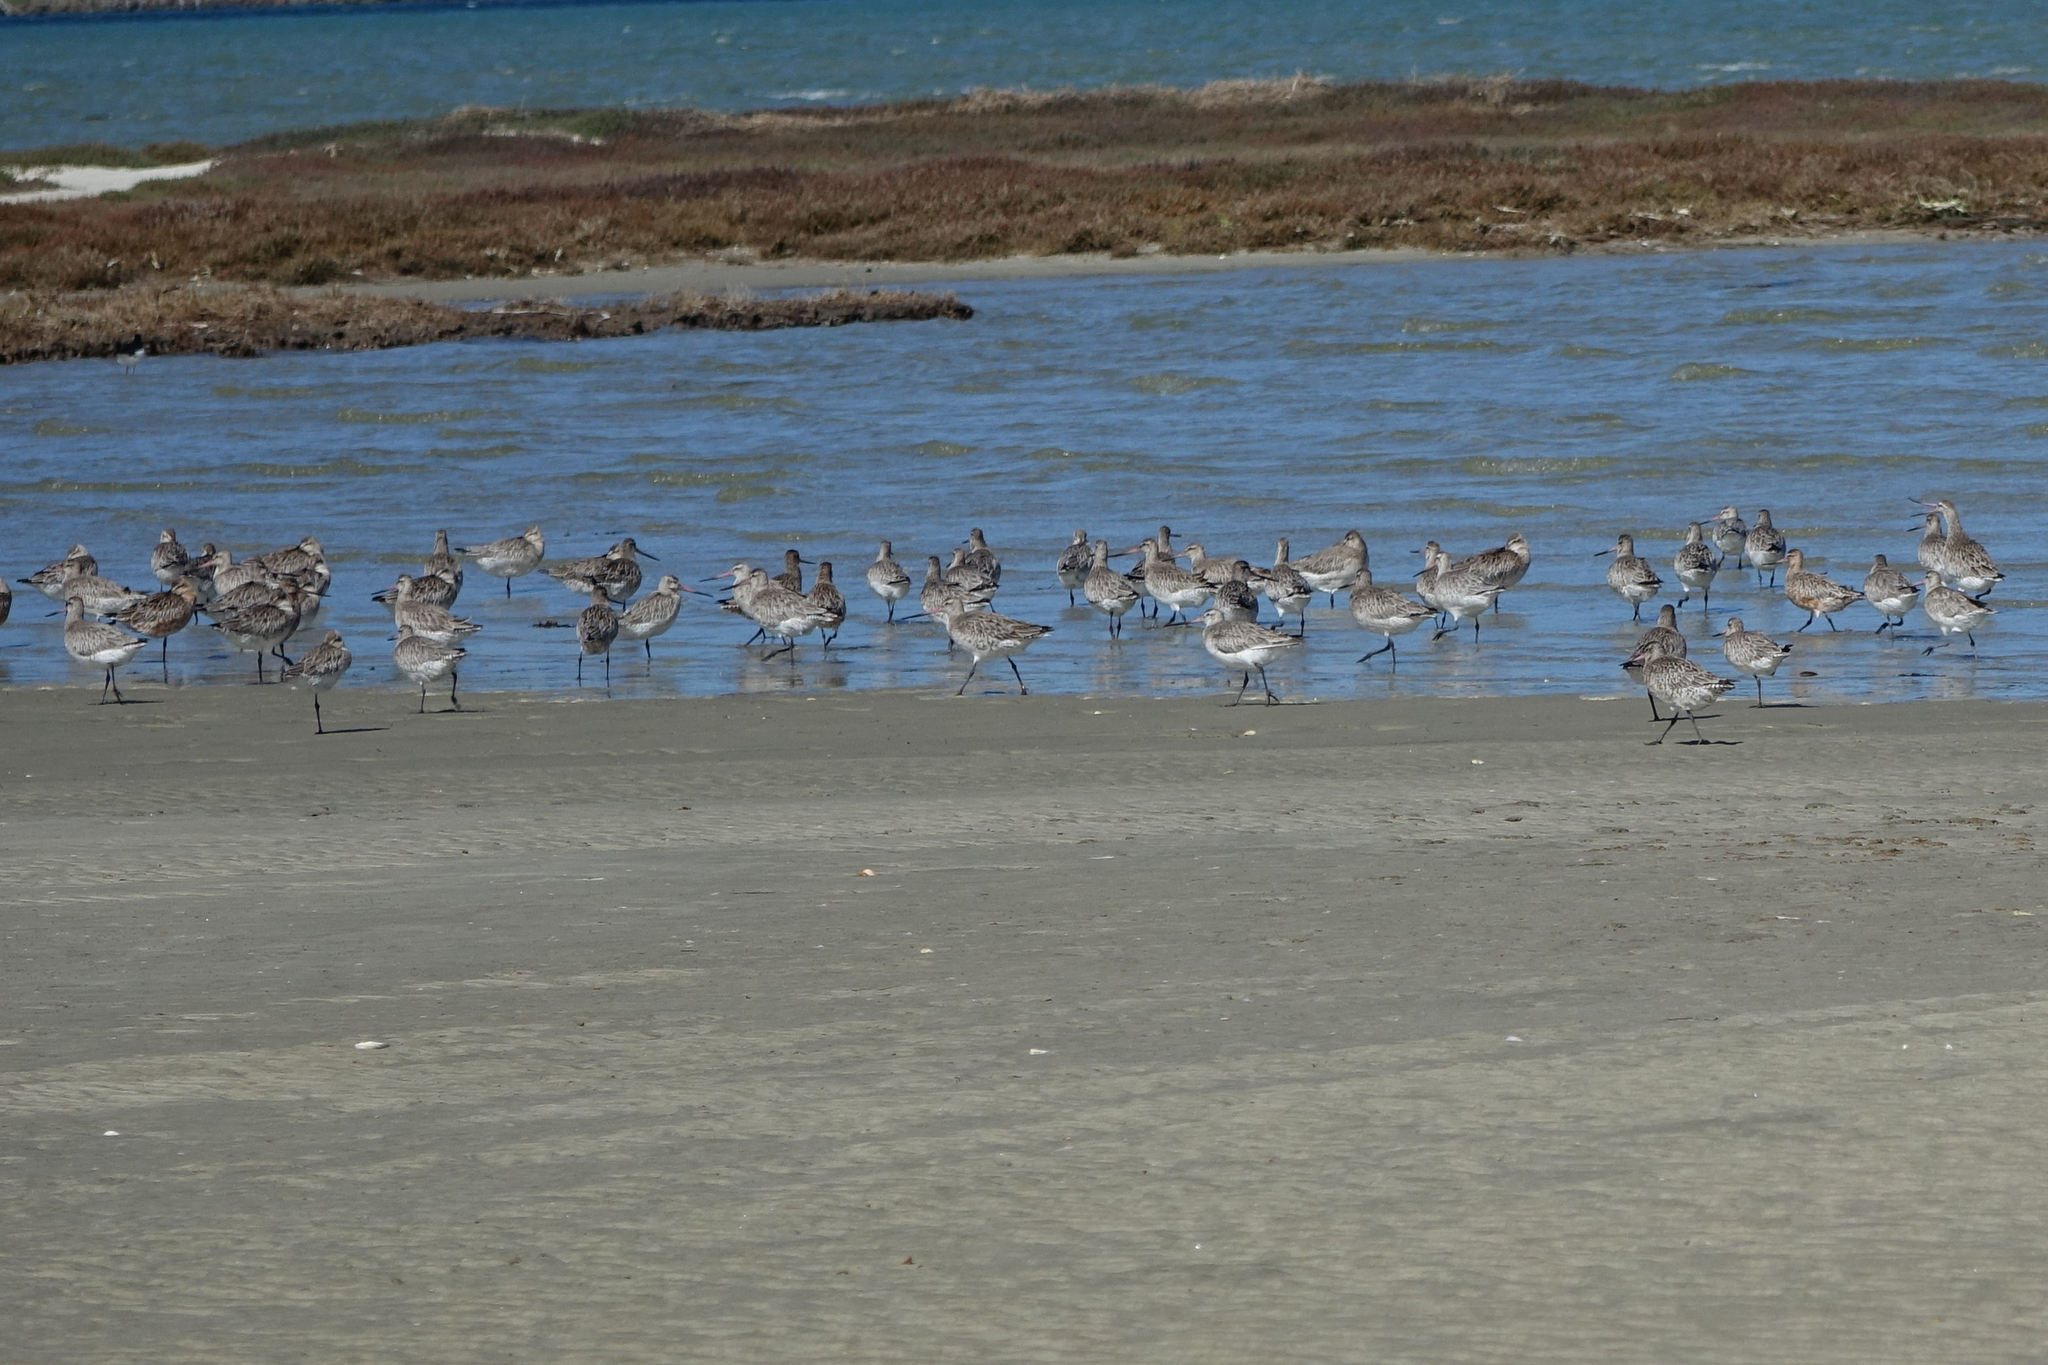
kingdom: Animalia
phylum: Chordata
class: Aves
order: Charadriiformes
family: Scolopacidae
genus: Limosa
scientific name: Limosa lapponica
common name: Bar-tailed godwit
